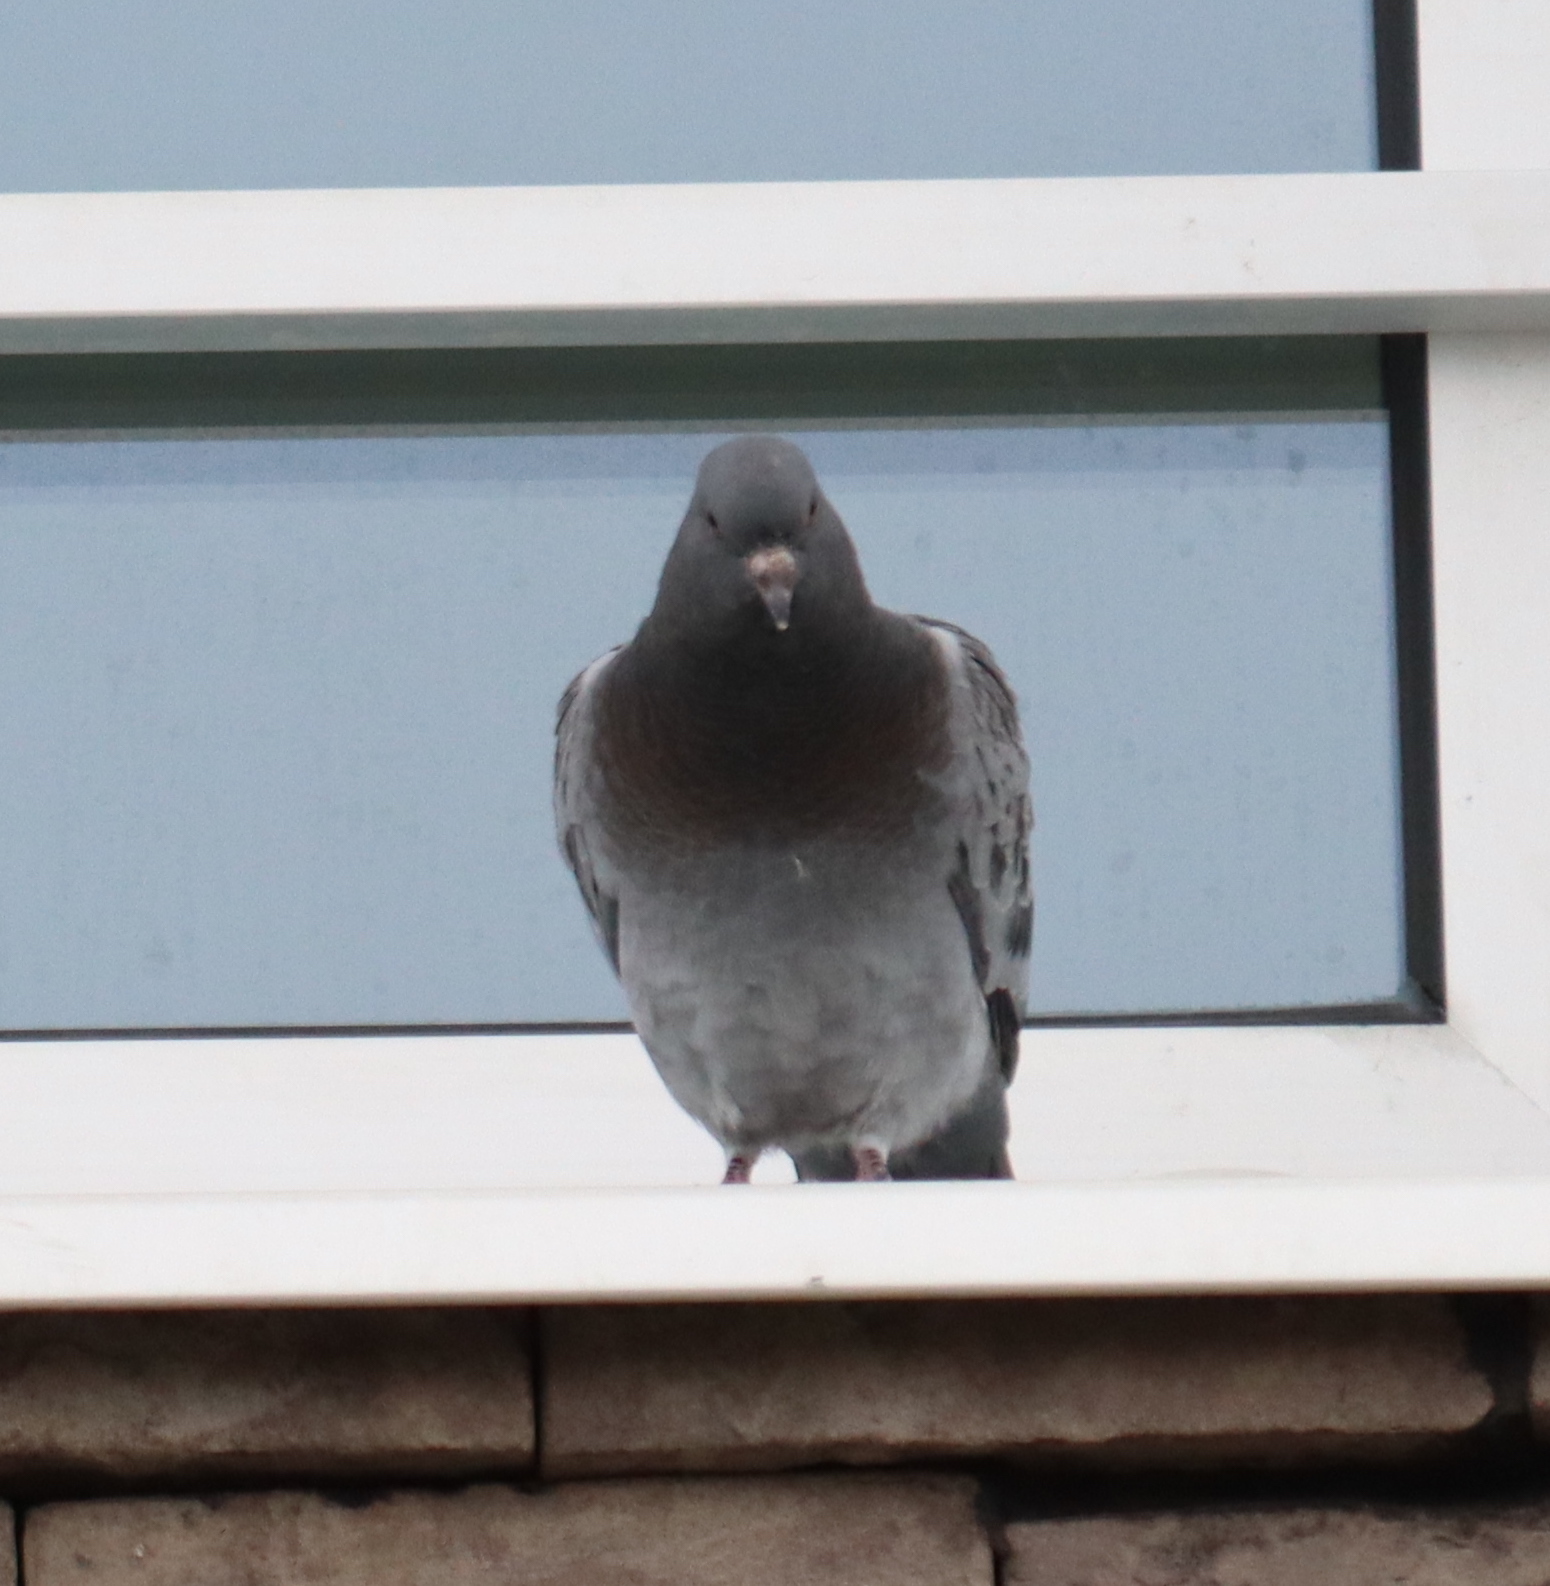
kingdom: Animalia
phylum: Chordata
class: Aves
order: Columbiformes
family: Columbidae
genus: Columba
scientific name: Columba livia
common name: Rock pigeon
